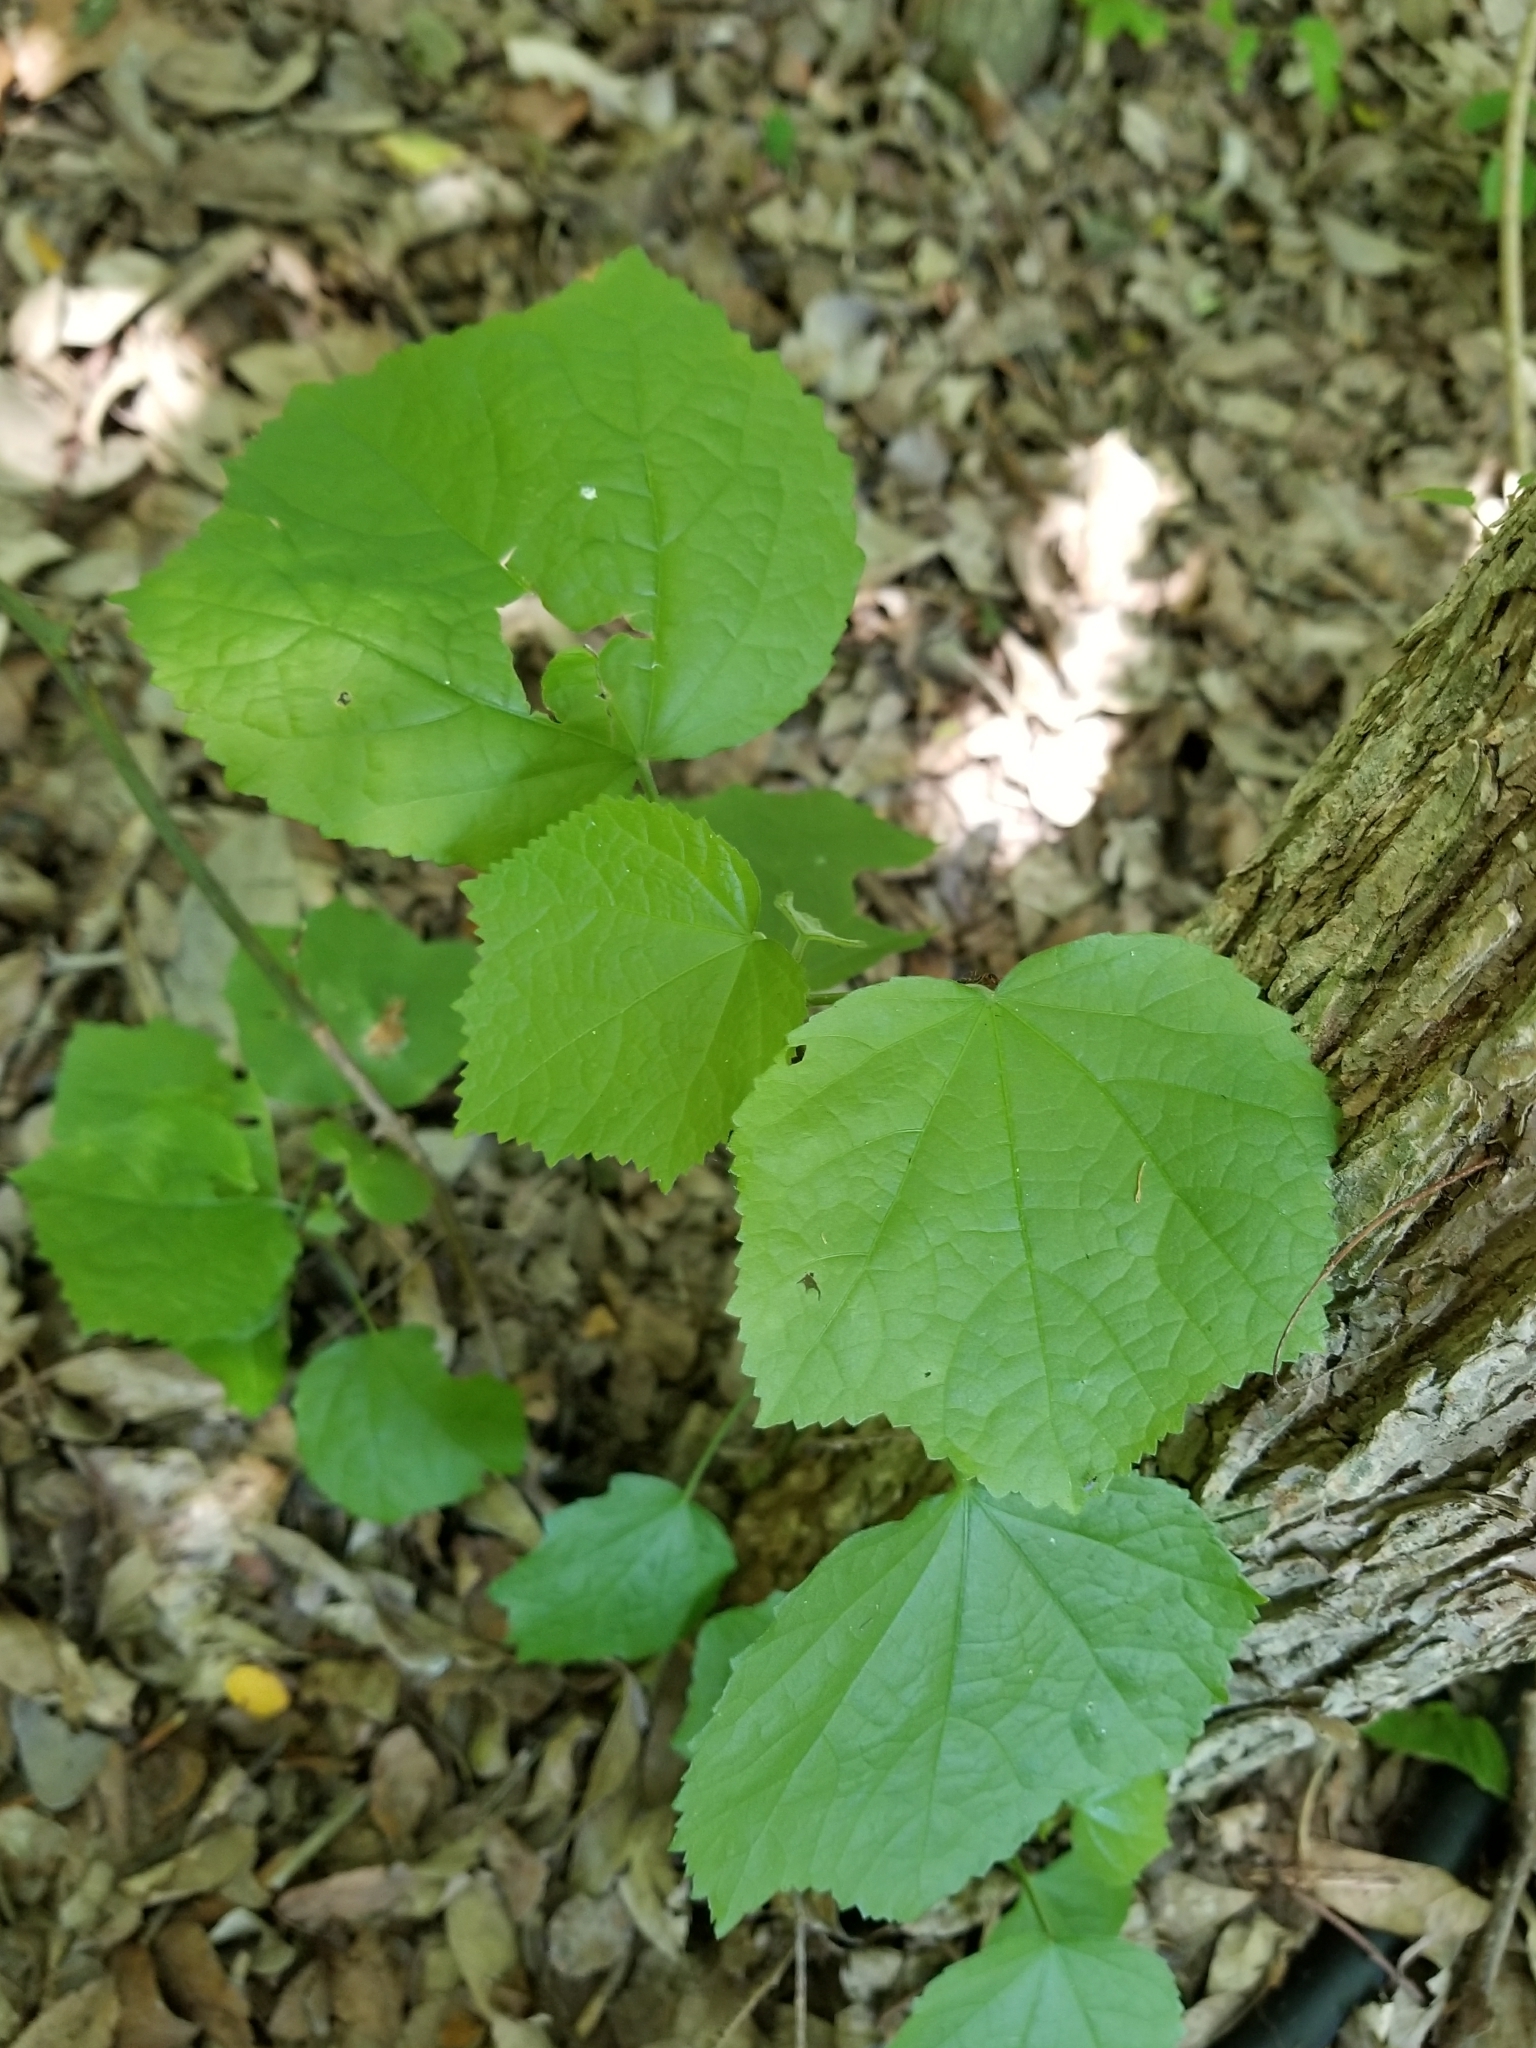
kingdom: Plantae
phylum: Tracheophyta
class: Magnoliopsida
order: Malvales
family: Malvaceae
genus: Malvaviscus
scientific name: Malvaviscus arboreus
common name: Wax mallow
